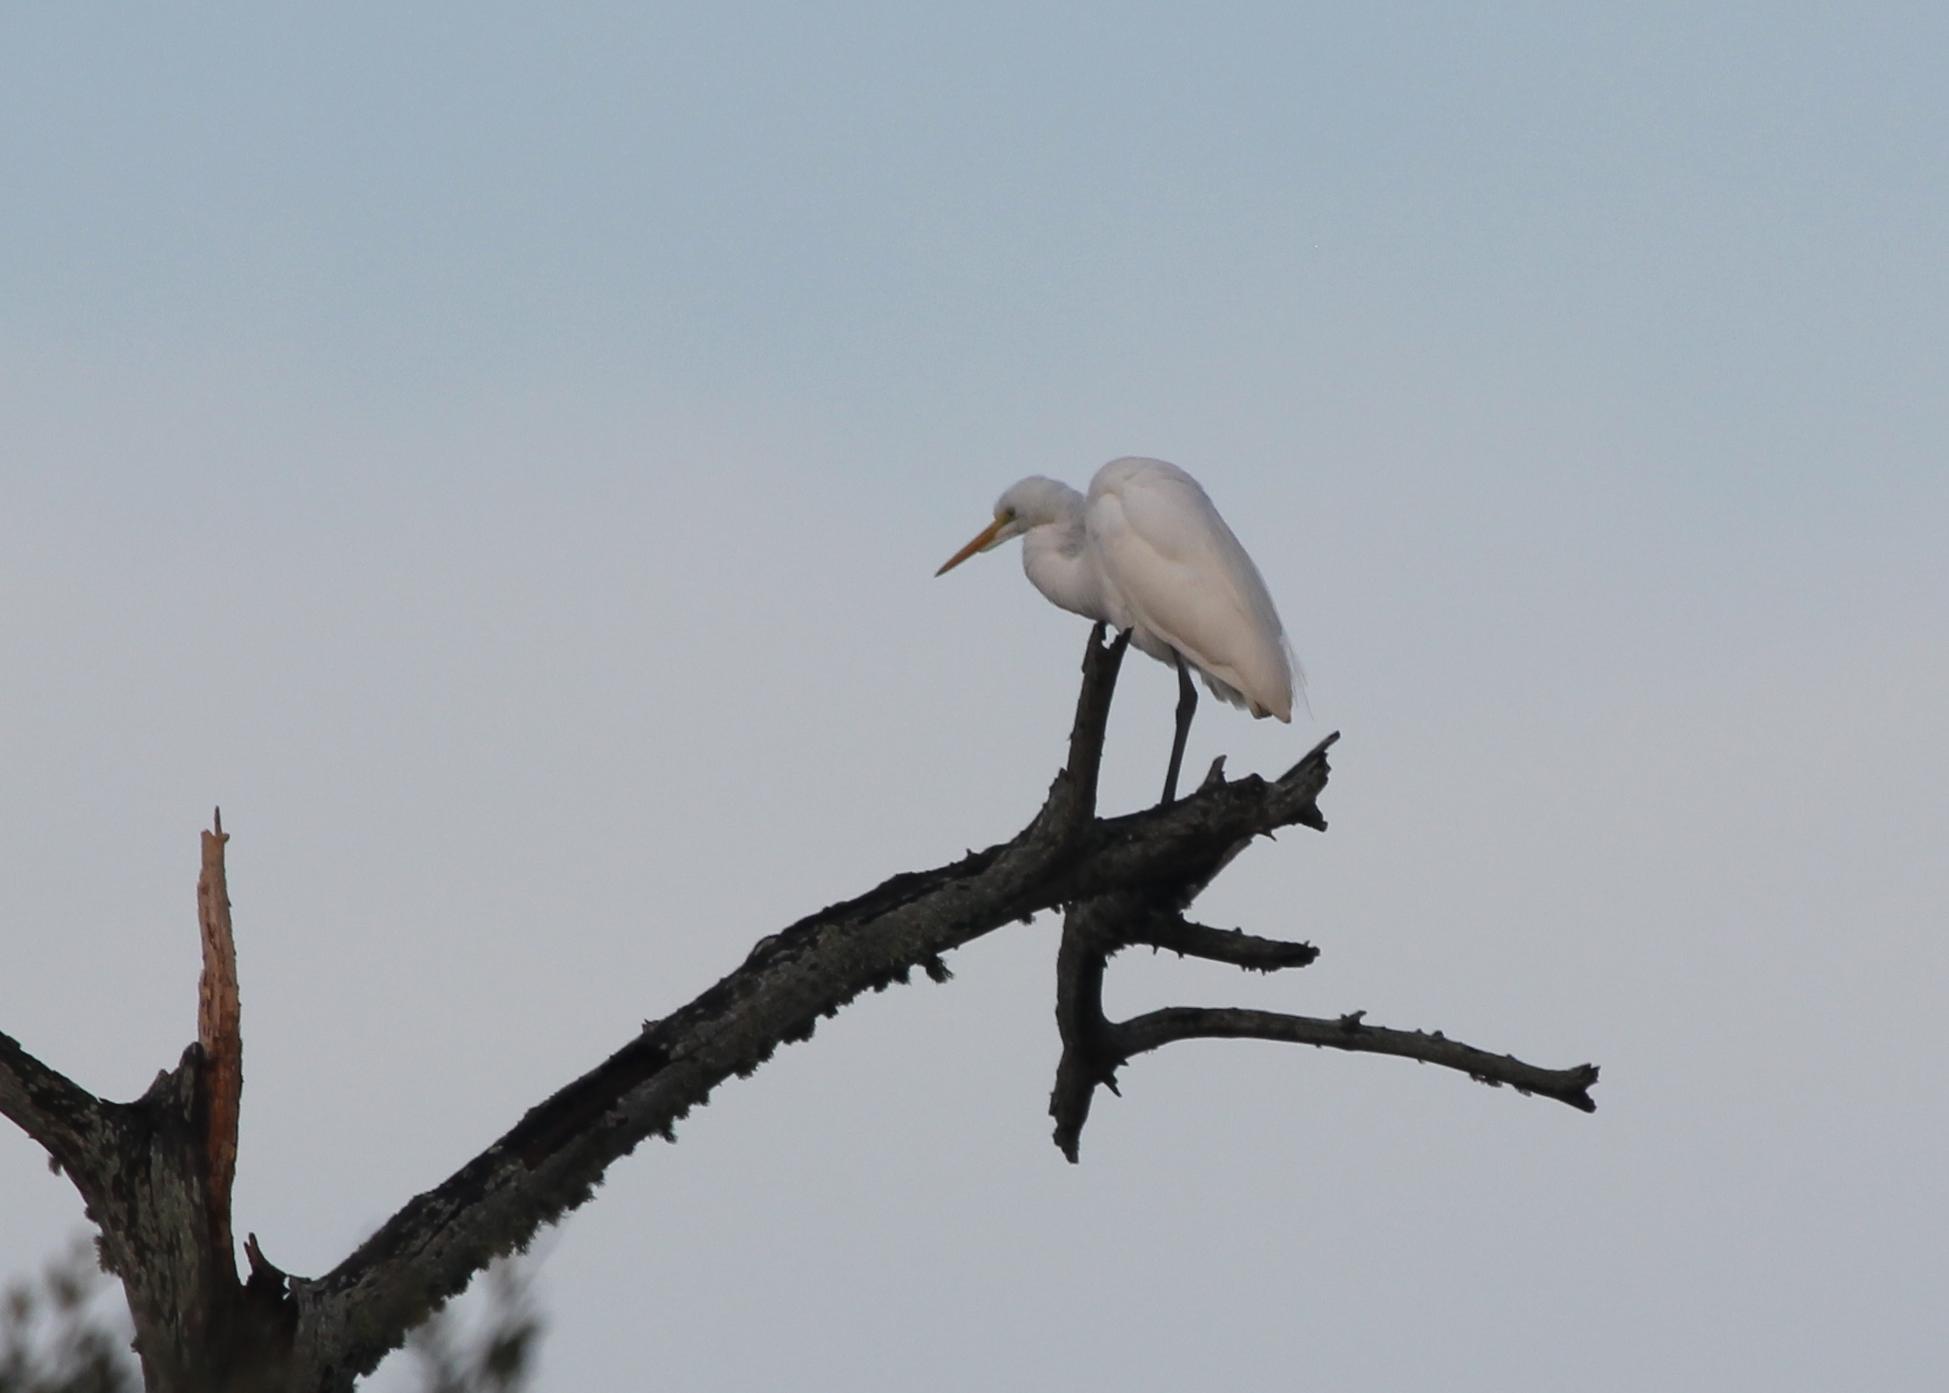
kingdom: Animalia
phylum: Chordata
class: Aves
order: Pelecaniformes
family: Ardeidae
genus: Ardea
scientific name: Ardea alba
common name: Great egret
